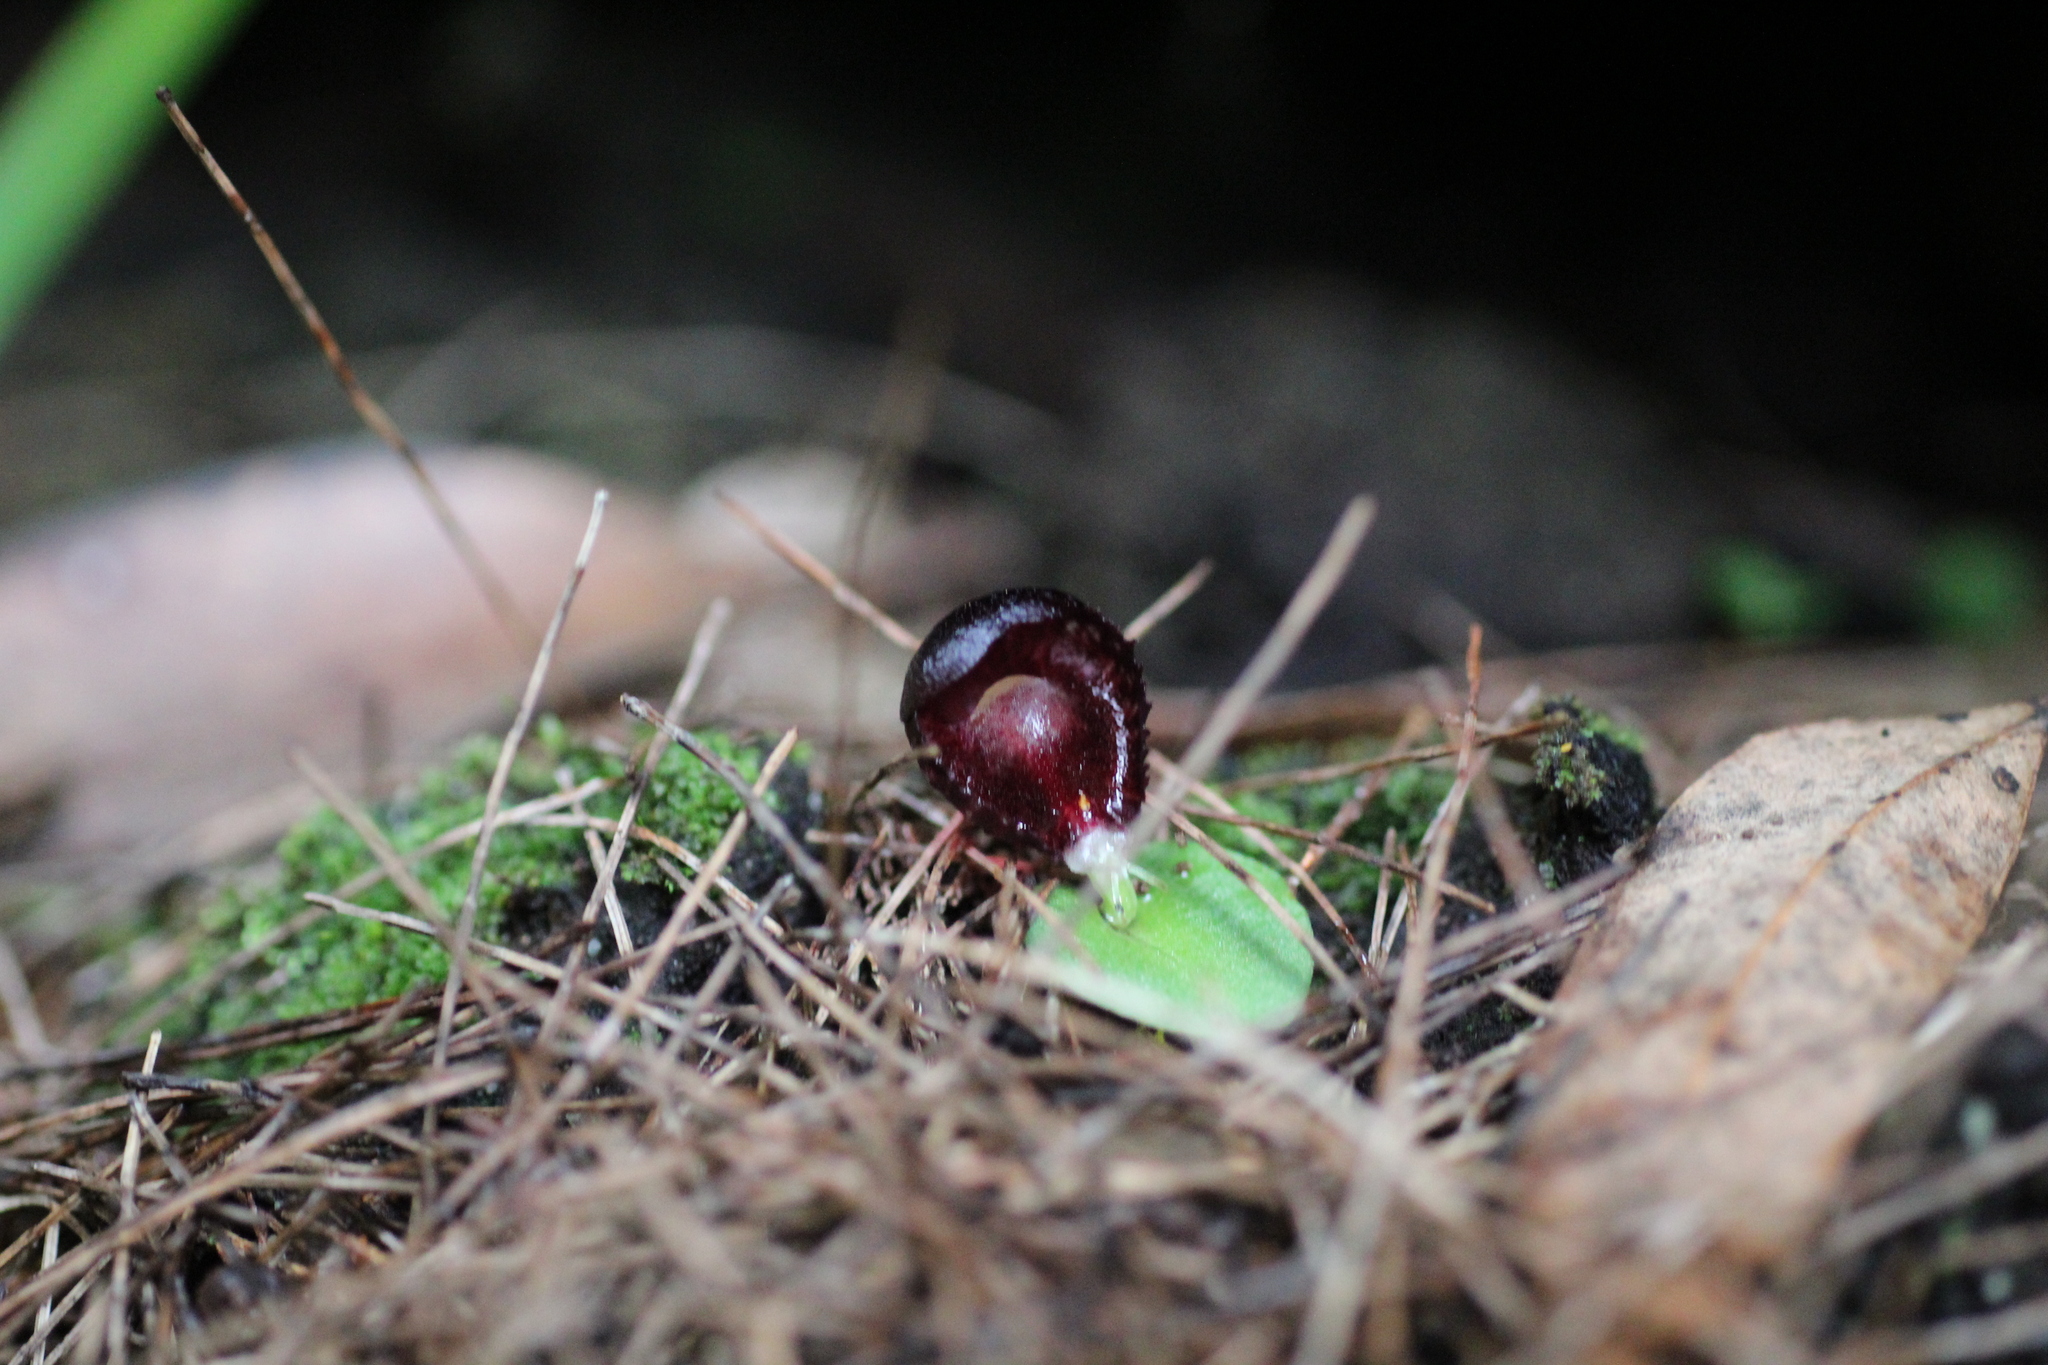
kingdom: Plantae
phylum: Tracheophyta
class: Liliopsida
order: Asparagales
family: Orchidaceae
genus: Corybas
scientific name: Corybas recurvus
